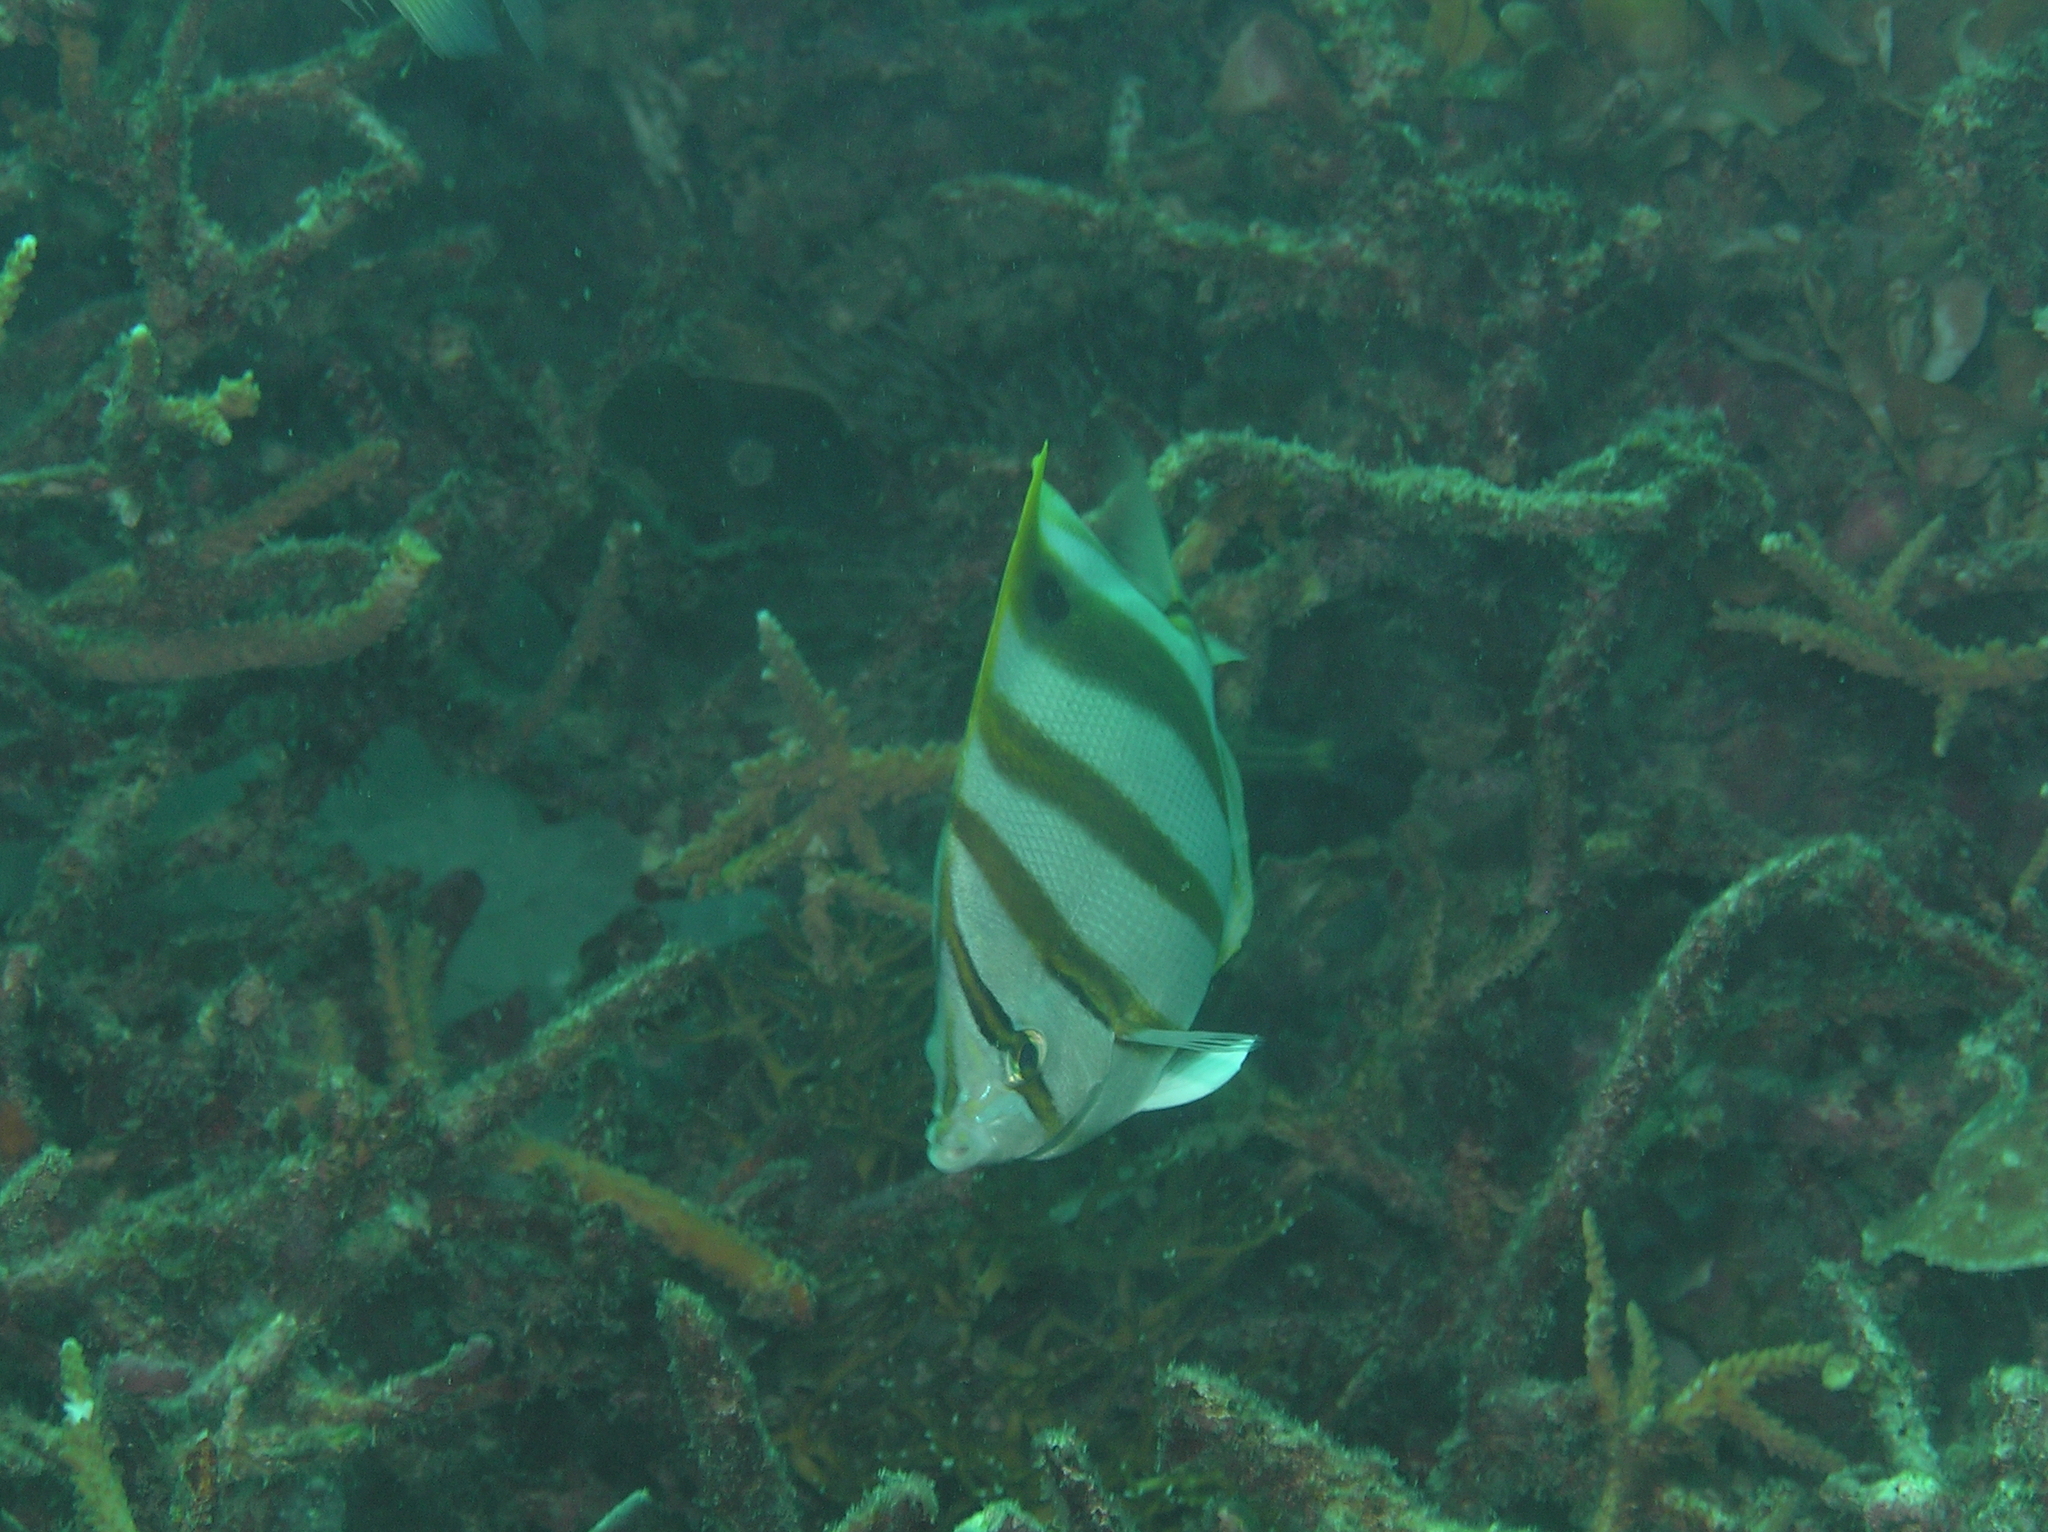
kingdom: Animalia
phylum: Chordata
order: Perciformes
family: Chaetodontidae
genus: Parachaetodon
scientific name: Parachaetodon ocellatus
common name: Ocellate coralfish
